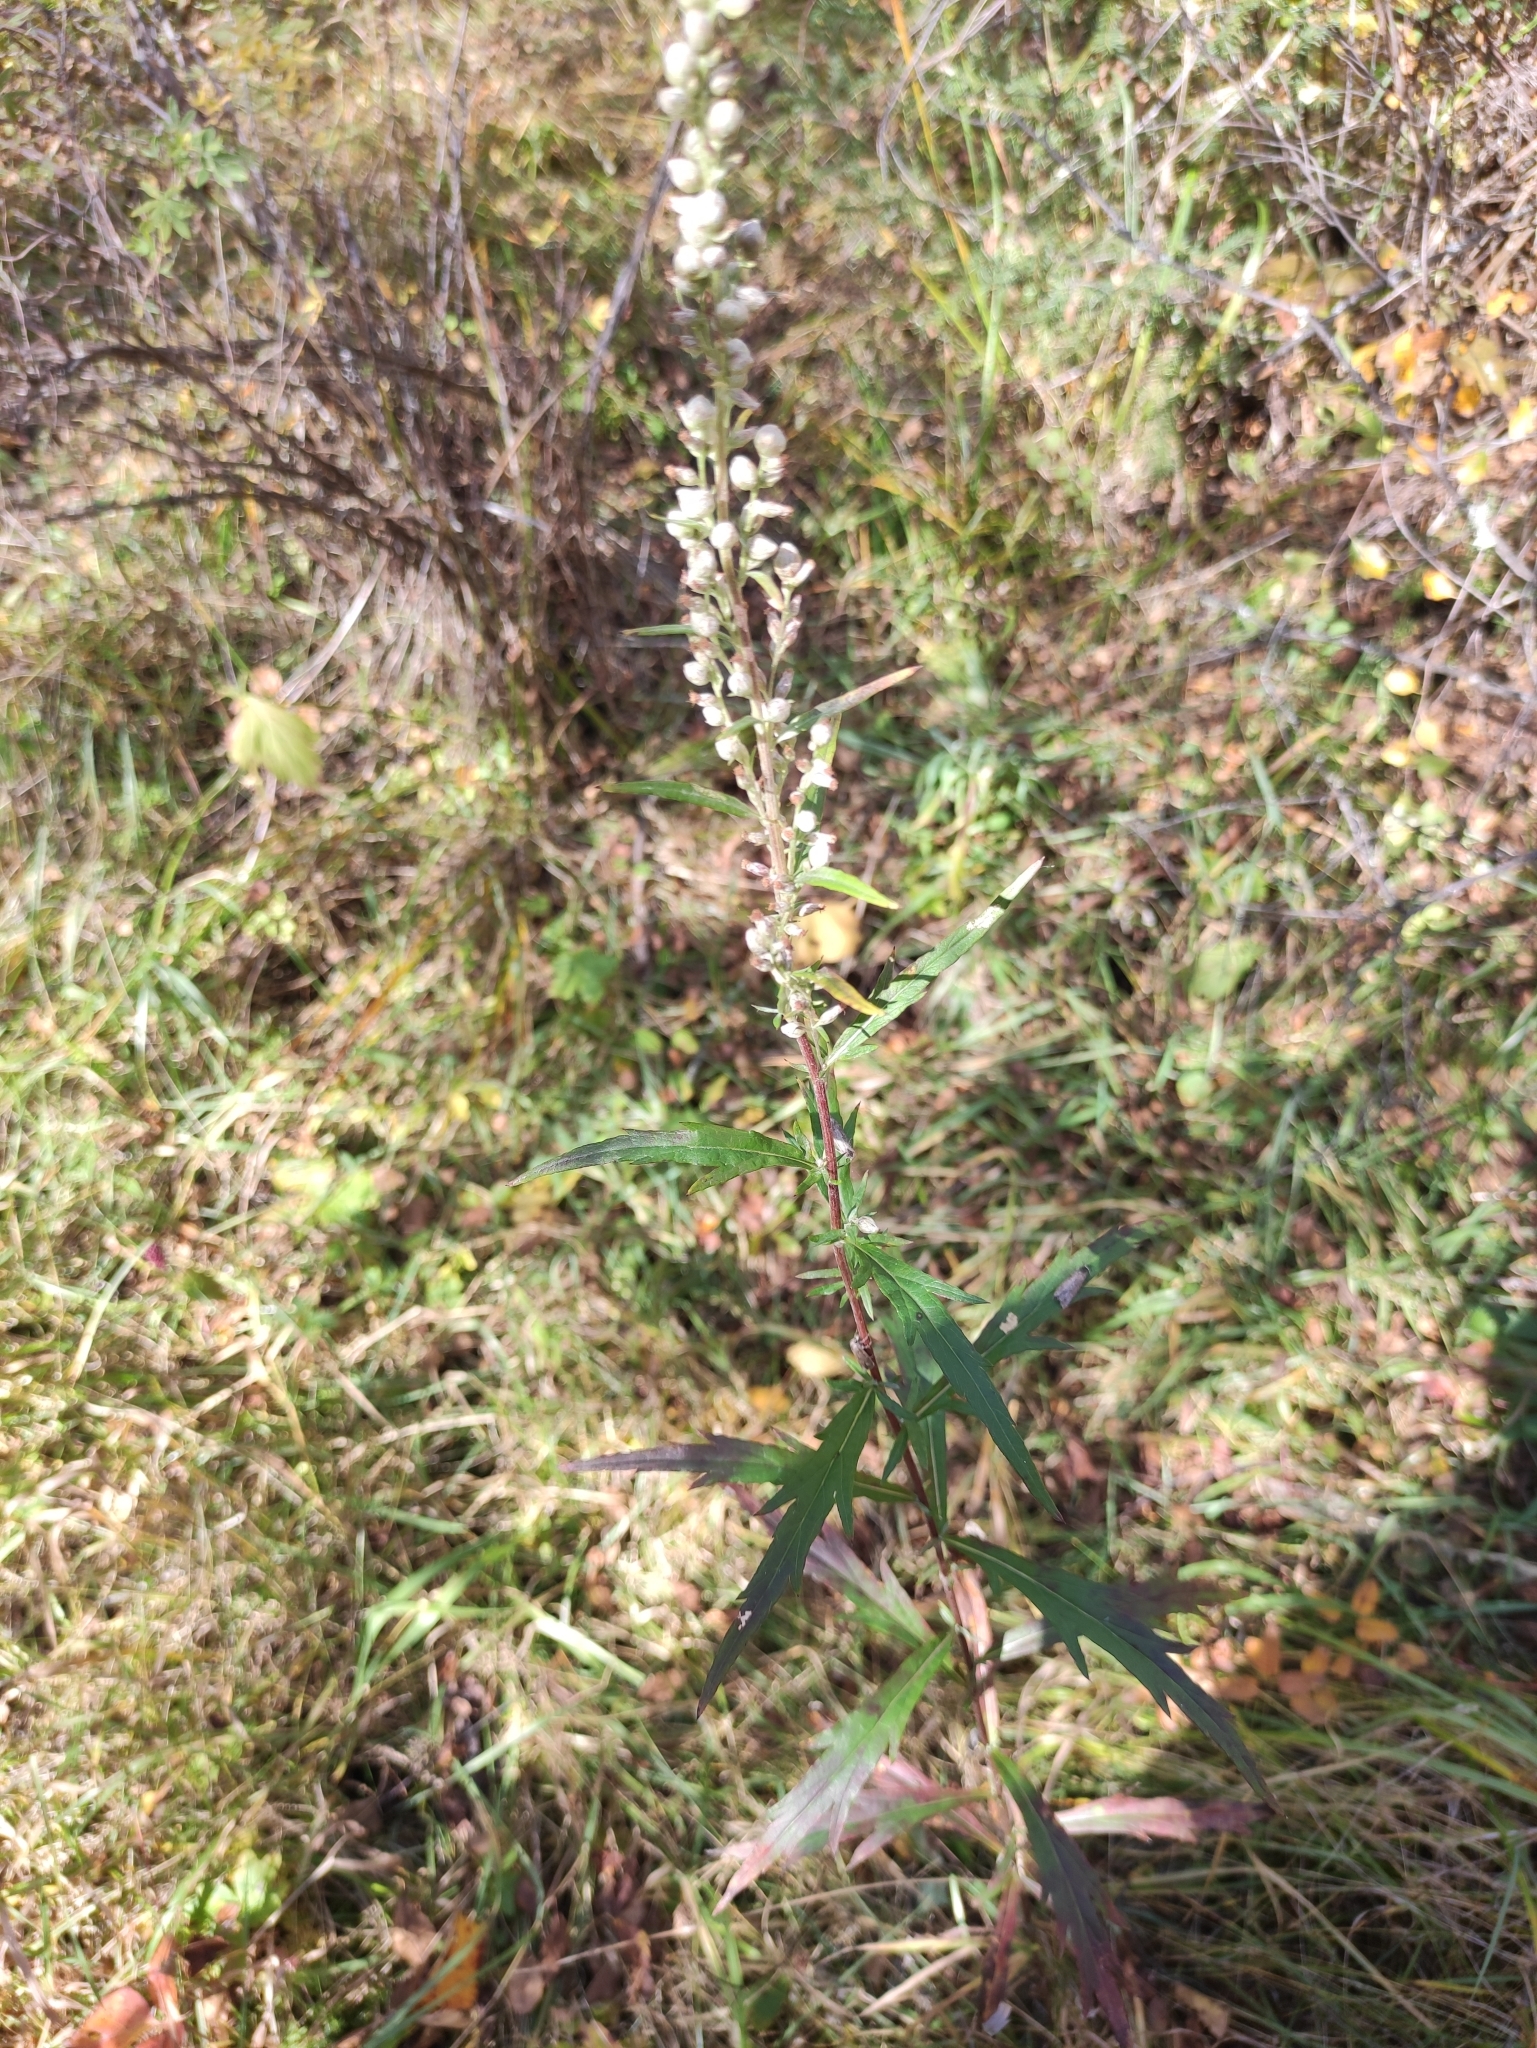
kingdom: Plantae
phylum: Tracheophyta
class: Magnoliopsida
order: Asterales
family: Asteraceae
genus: Artemisia
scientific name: Artemisia integrifolia
